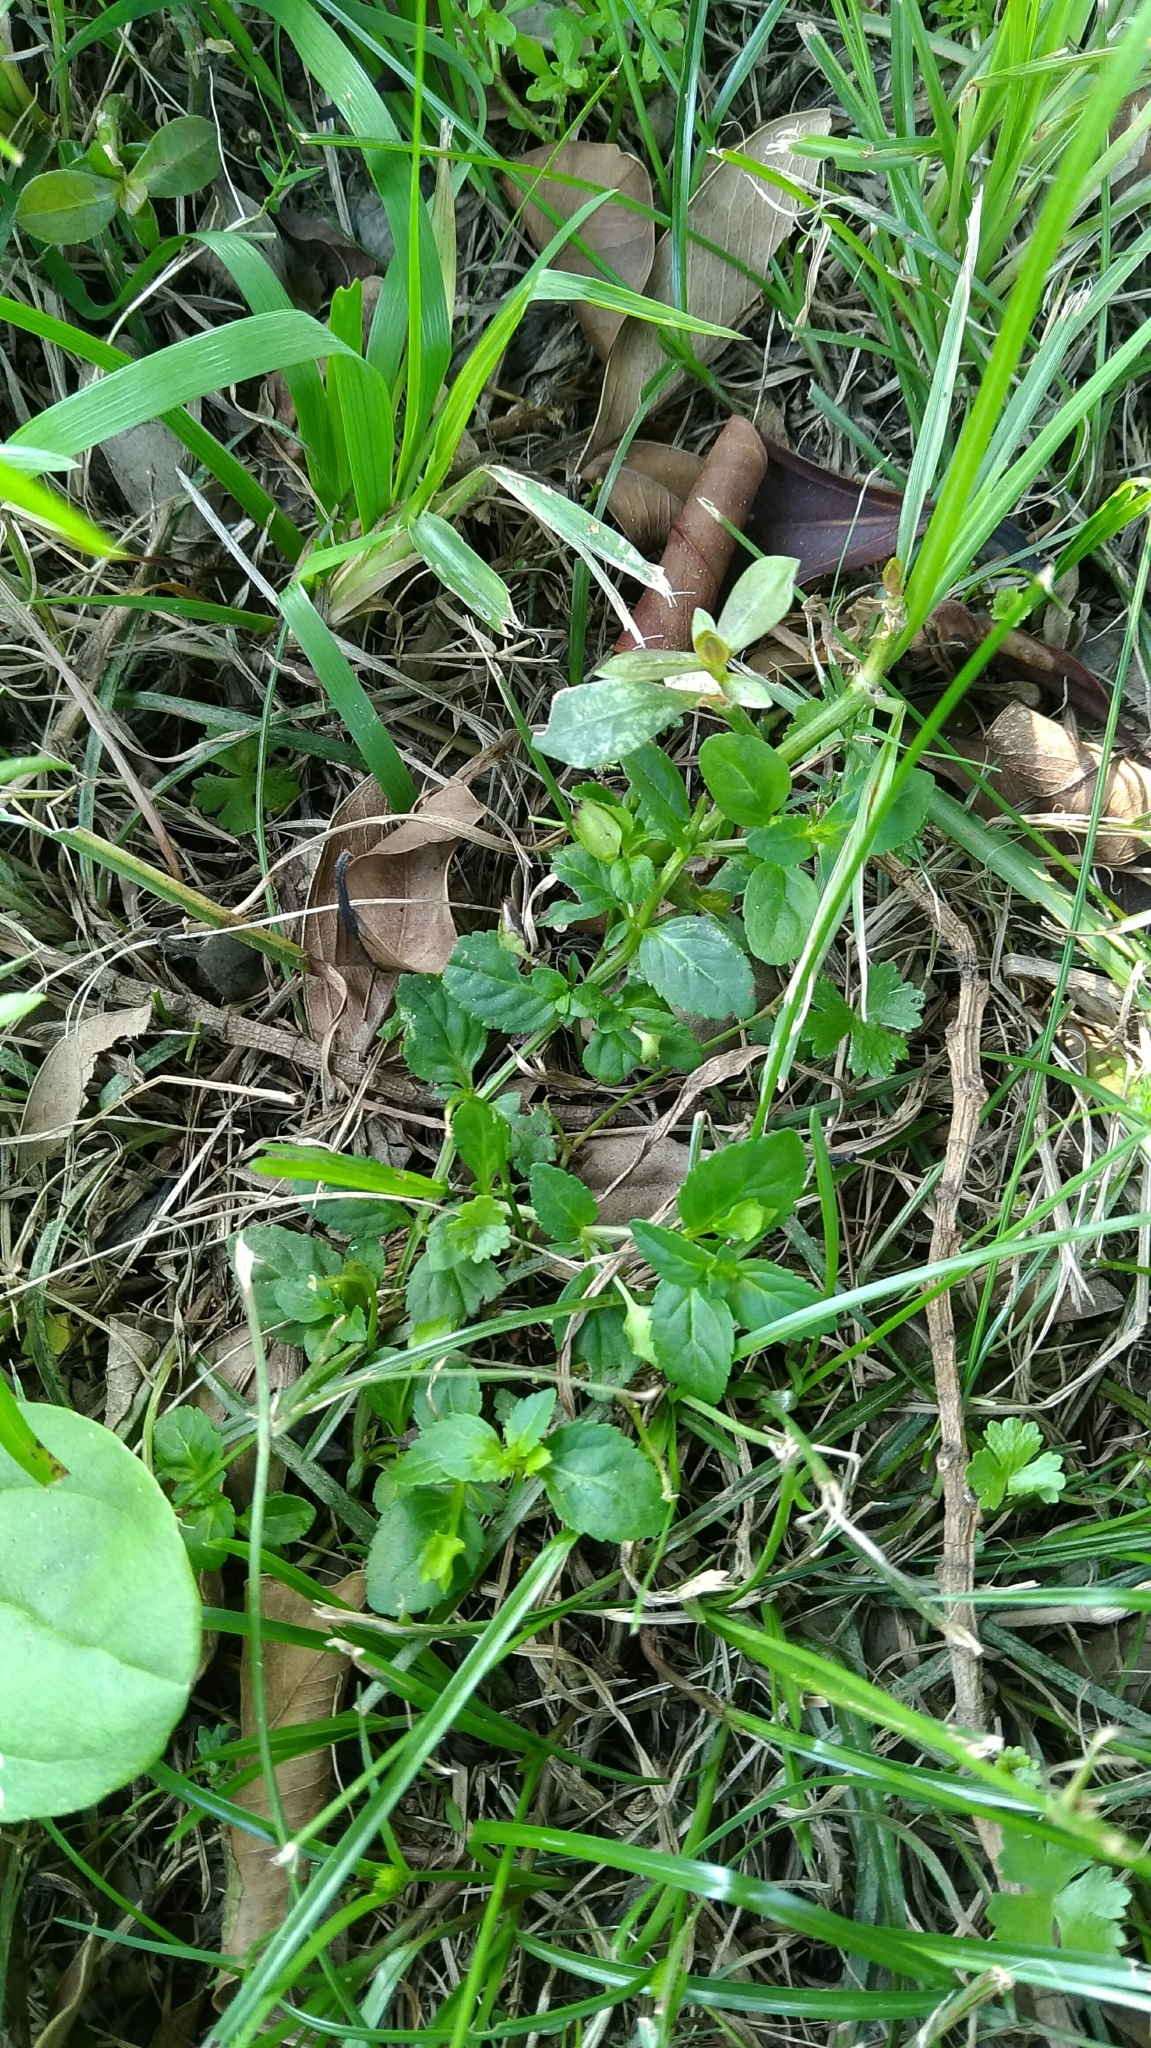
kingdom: Plantae
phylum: Tracheophyta
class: Magnoliopsida
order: Lamiales
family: Plantaginaceae
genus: Mecardonia
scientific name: Mecardonia procumbens
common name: Baby jump-up
